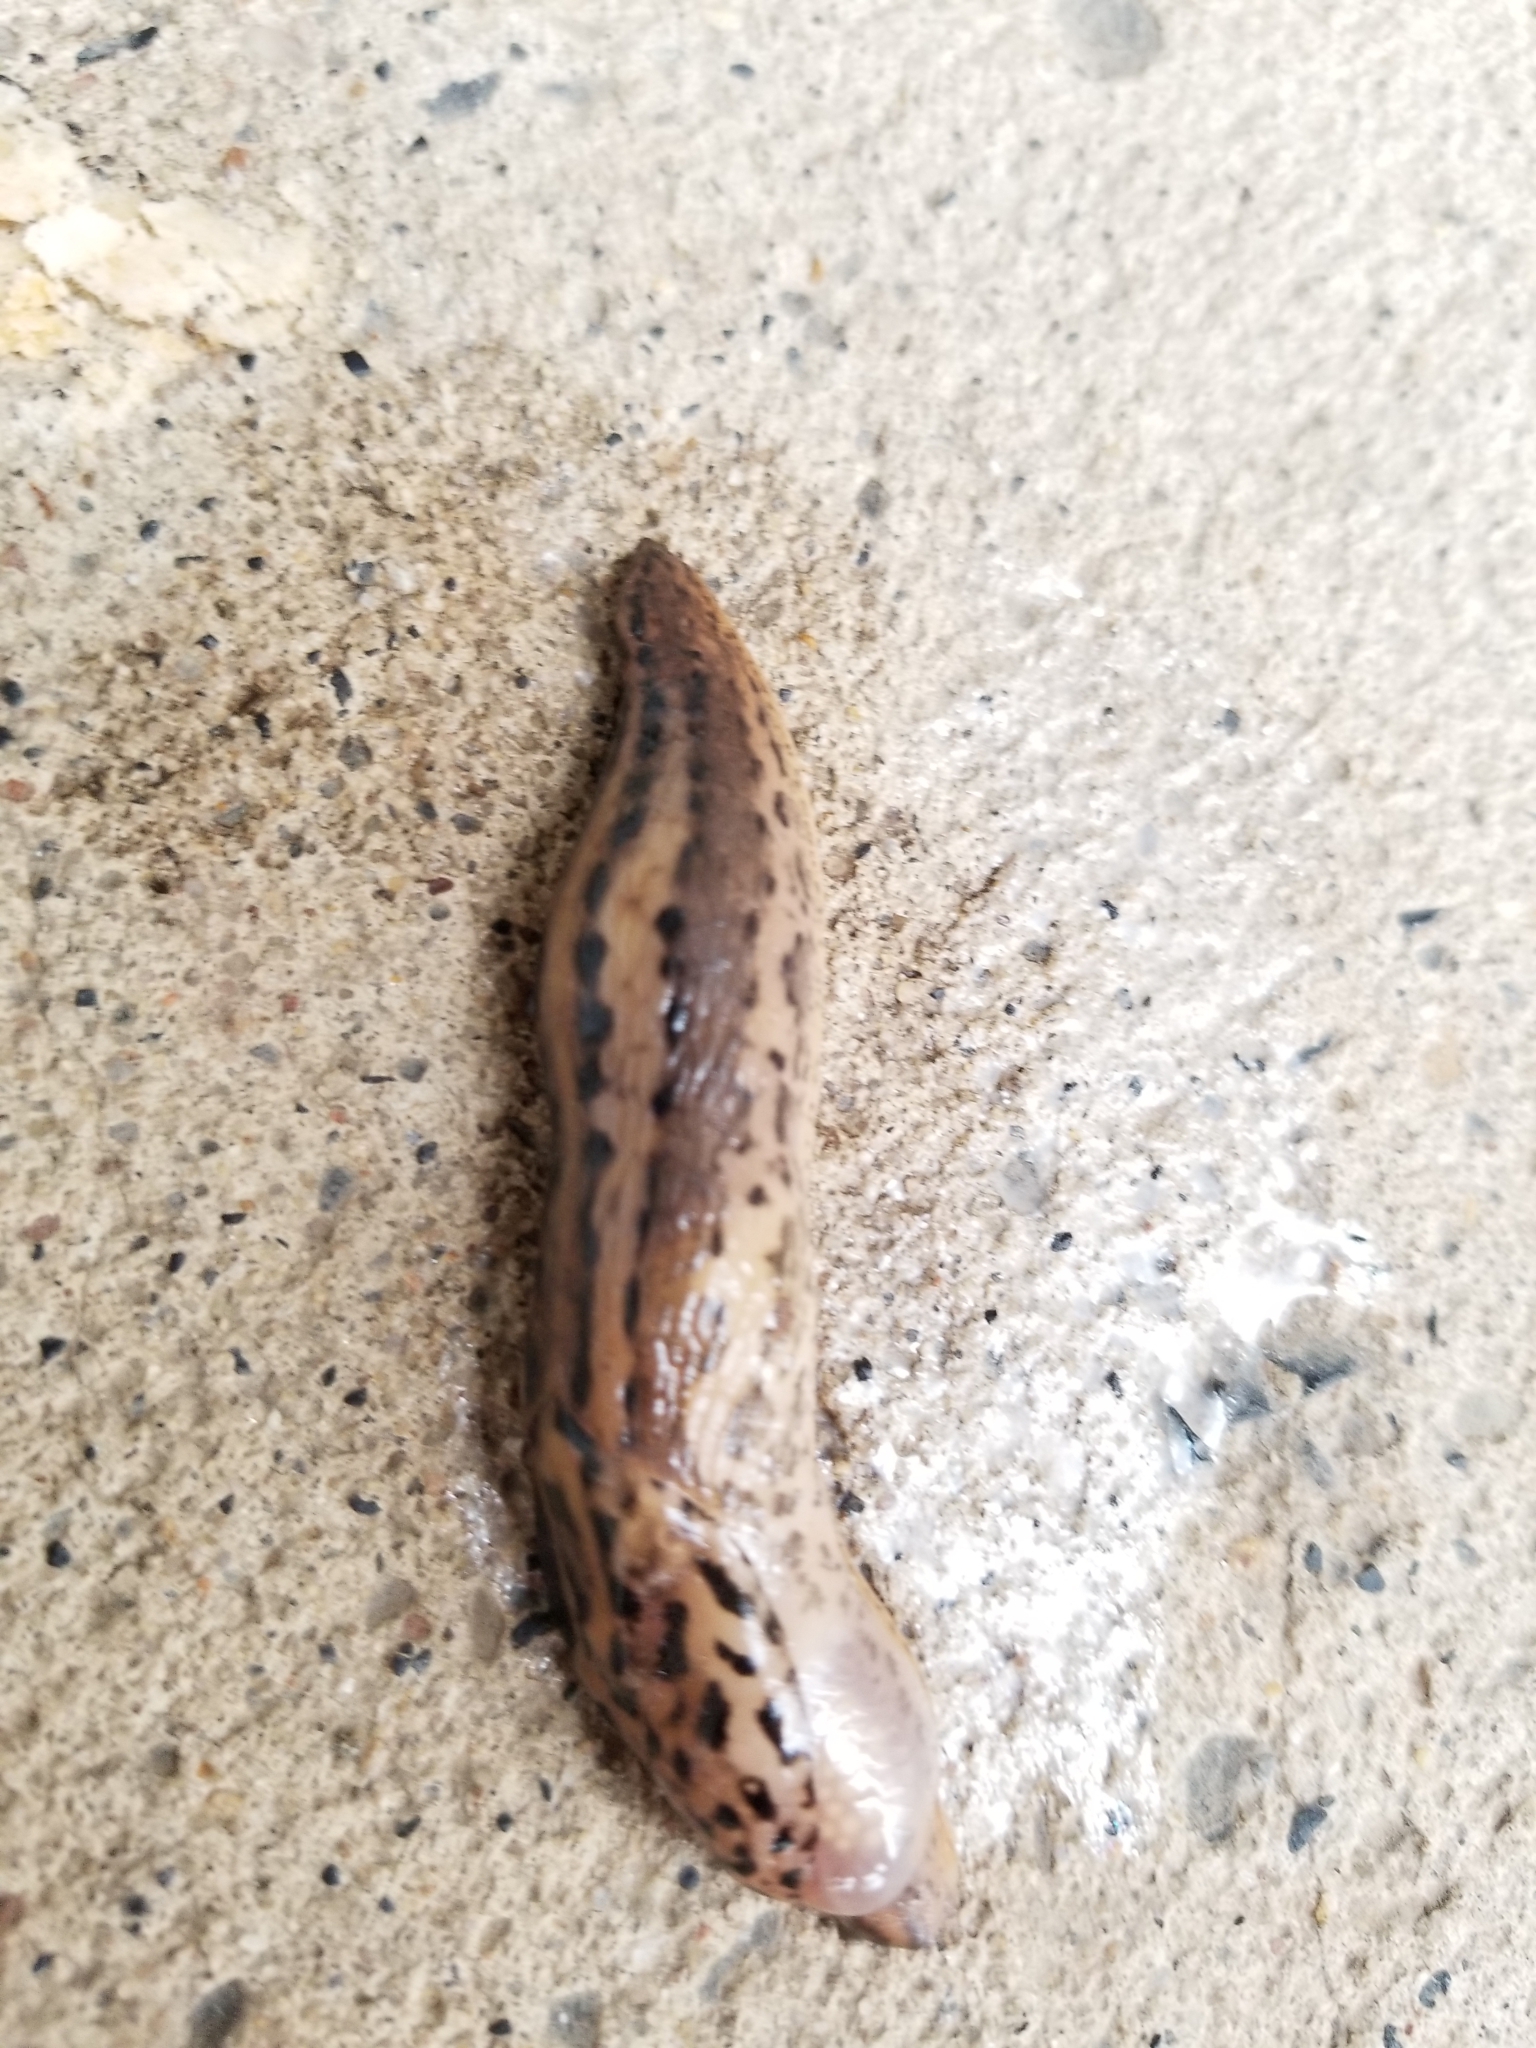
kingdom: Animalia
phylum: Mollusca
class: Gastropoda
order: Stylommatophora
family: Limacidae
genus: Limax
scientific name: Limax maximus
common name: Great grey slug
